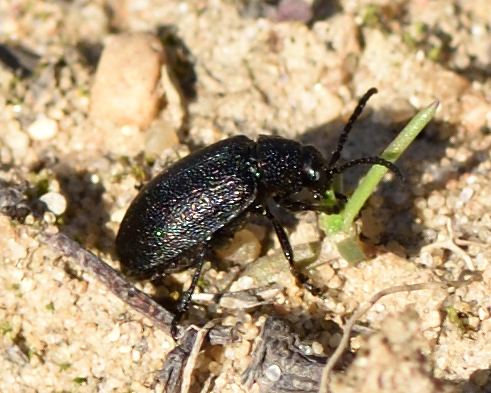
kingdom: Animalia
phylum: Arthropoda
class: Insecta
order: Coleoptera
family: Chrysomelidae
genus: Galeruca
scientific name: Galeruca tanaceti
